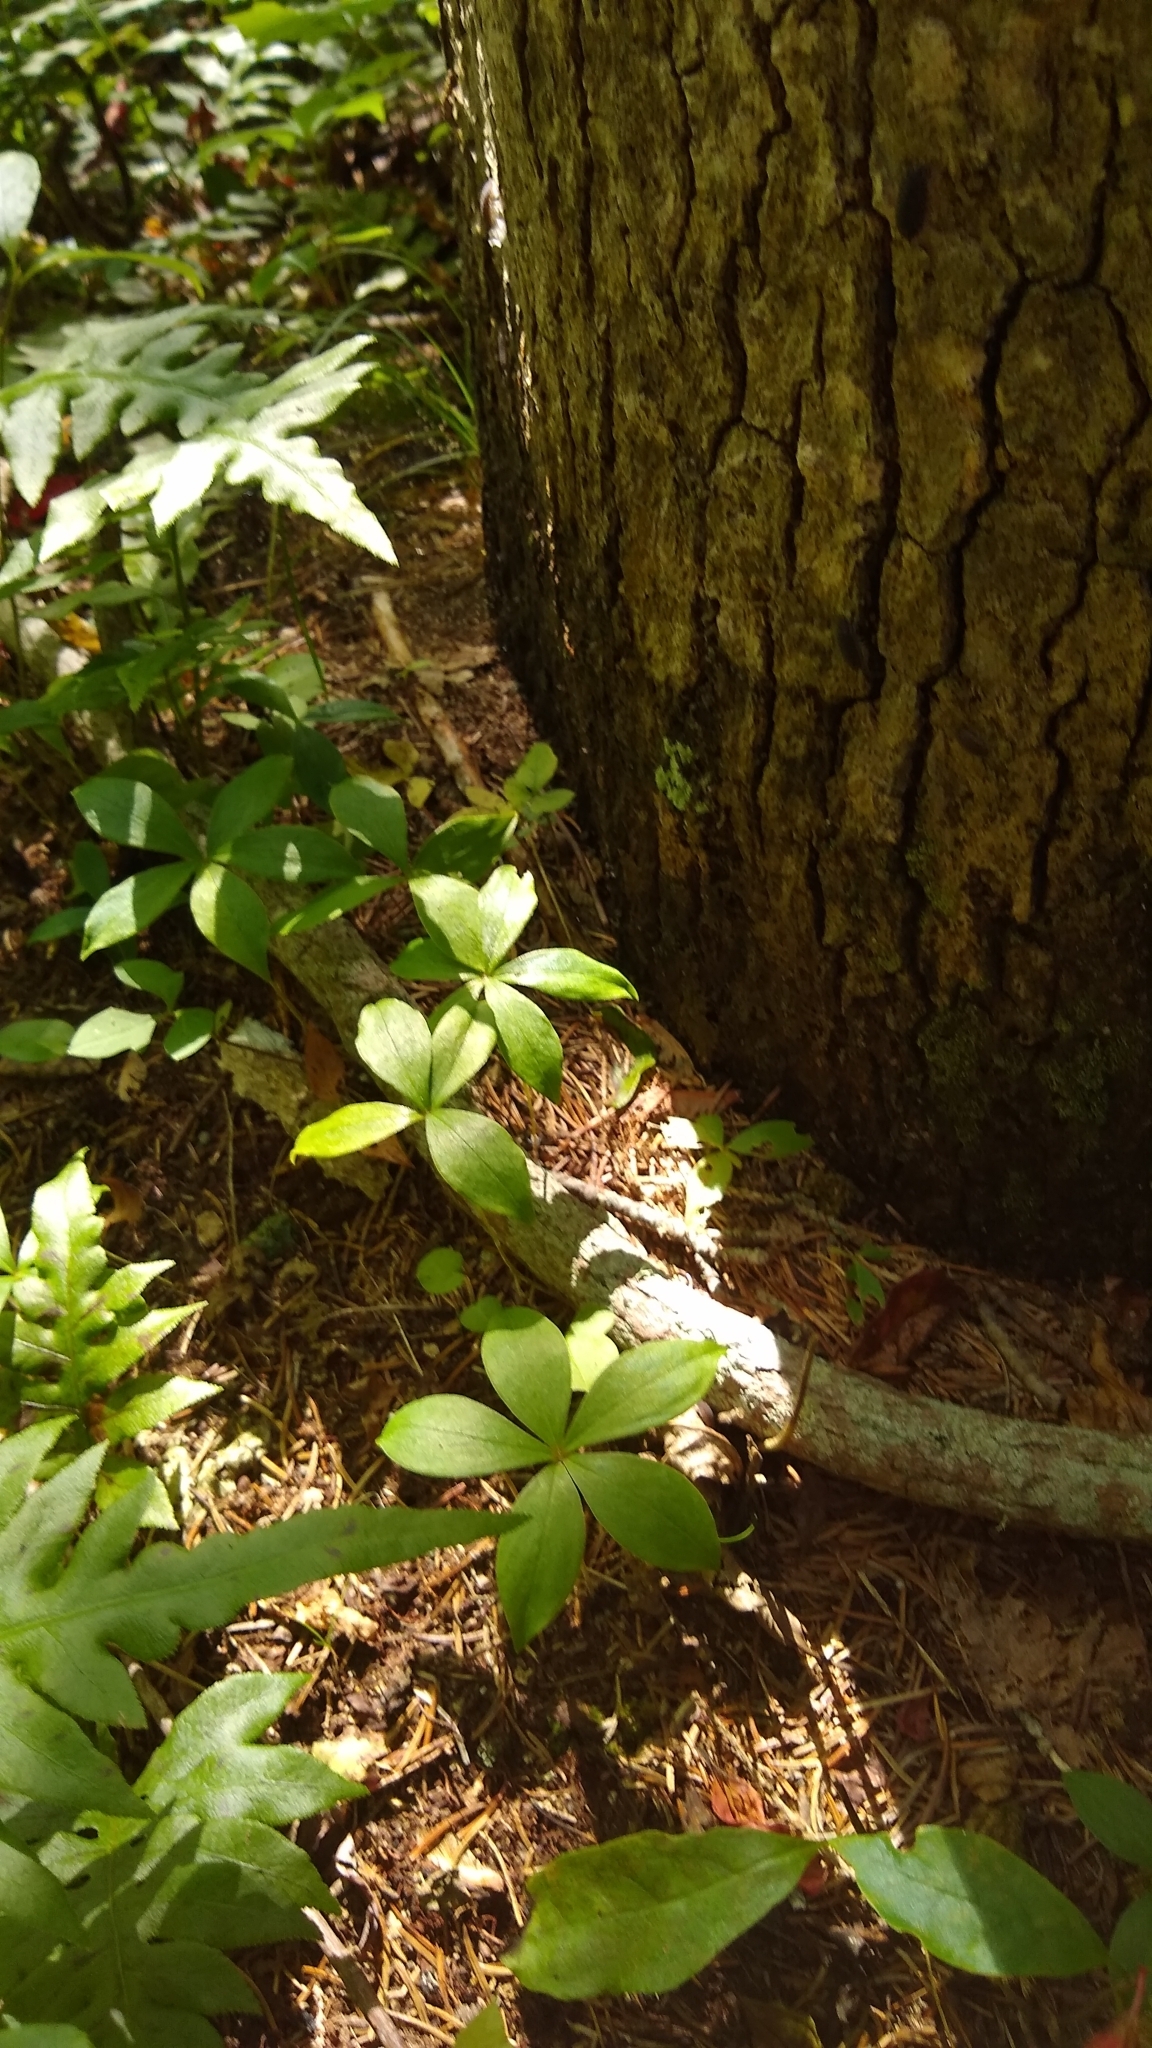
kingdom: Plantae
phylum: Tracheophyta
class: Liliopsida
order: Liliales
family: Liliaceae
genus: Medeola
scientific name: Medeola virginiana
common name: Indian cucumber-root
